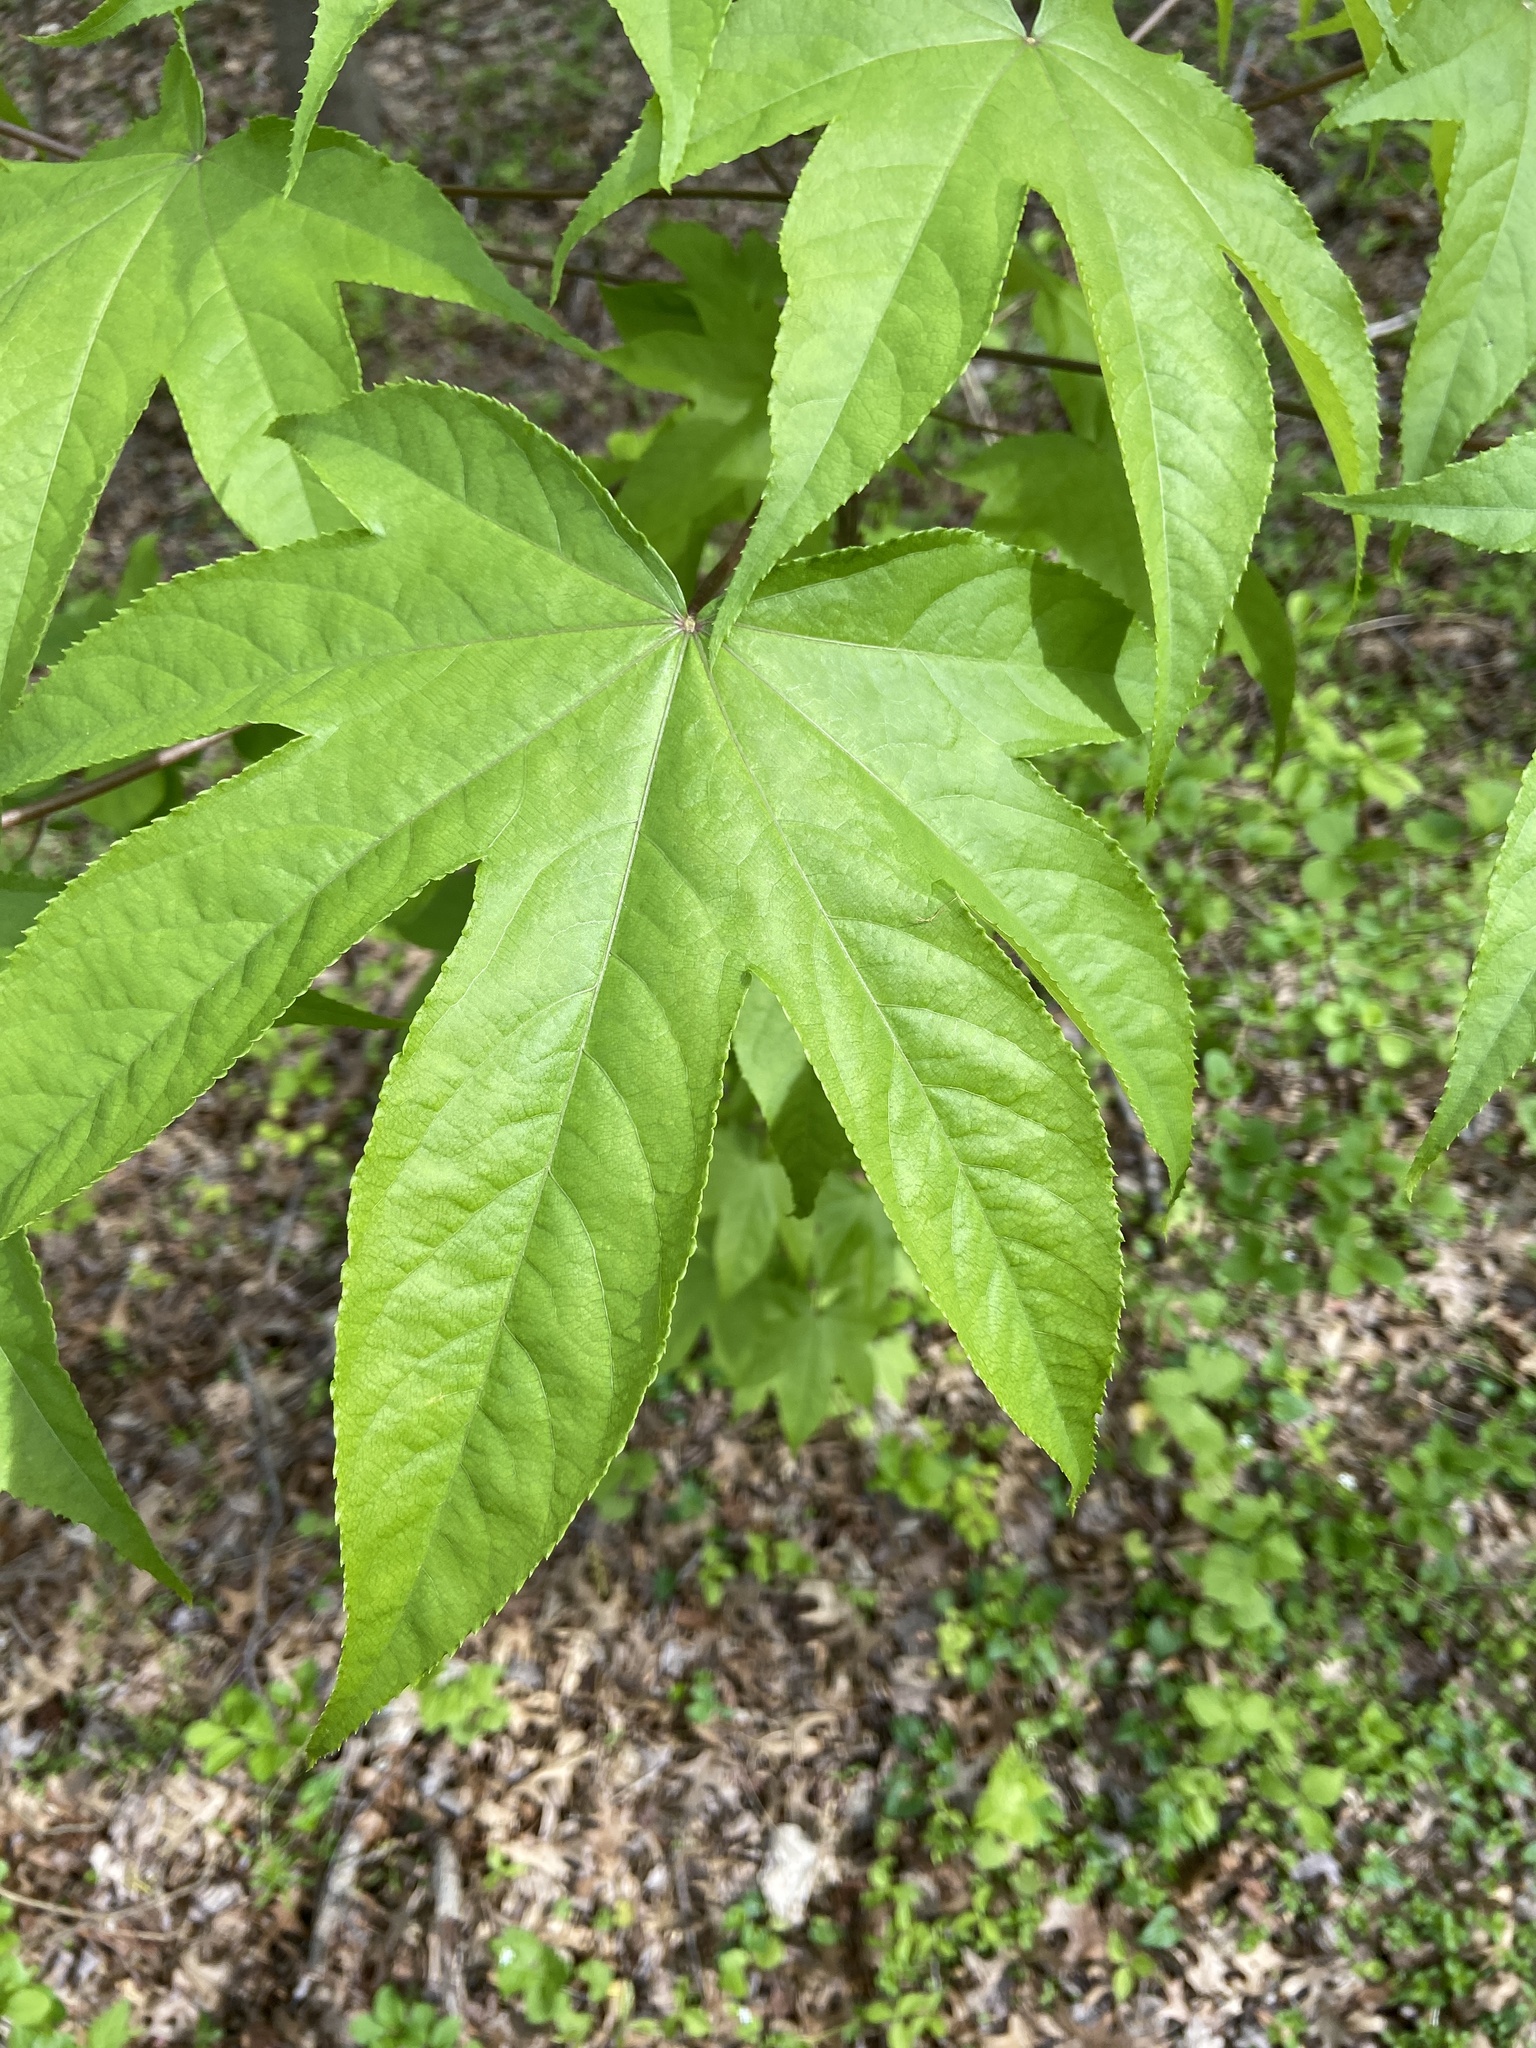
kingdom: Plantae
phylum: Tracheophyta
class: Magnoliopsida
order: Apiales
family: Araliaceae
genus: Kalopanax
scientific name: Kalopanax septemlobus
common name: Castor aralia
